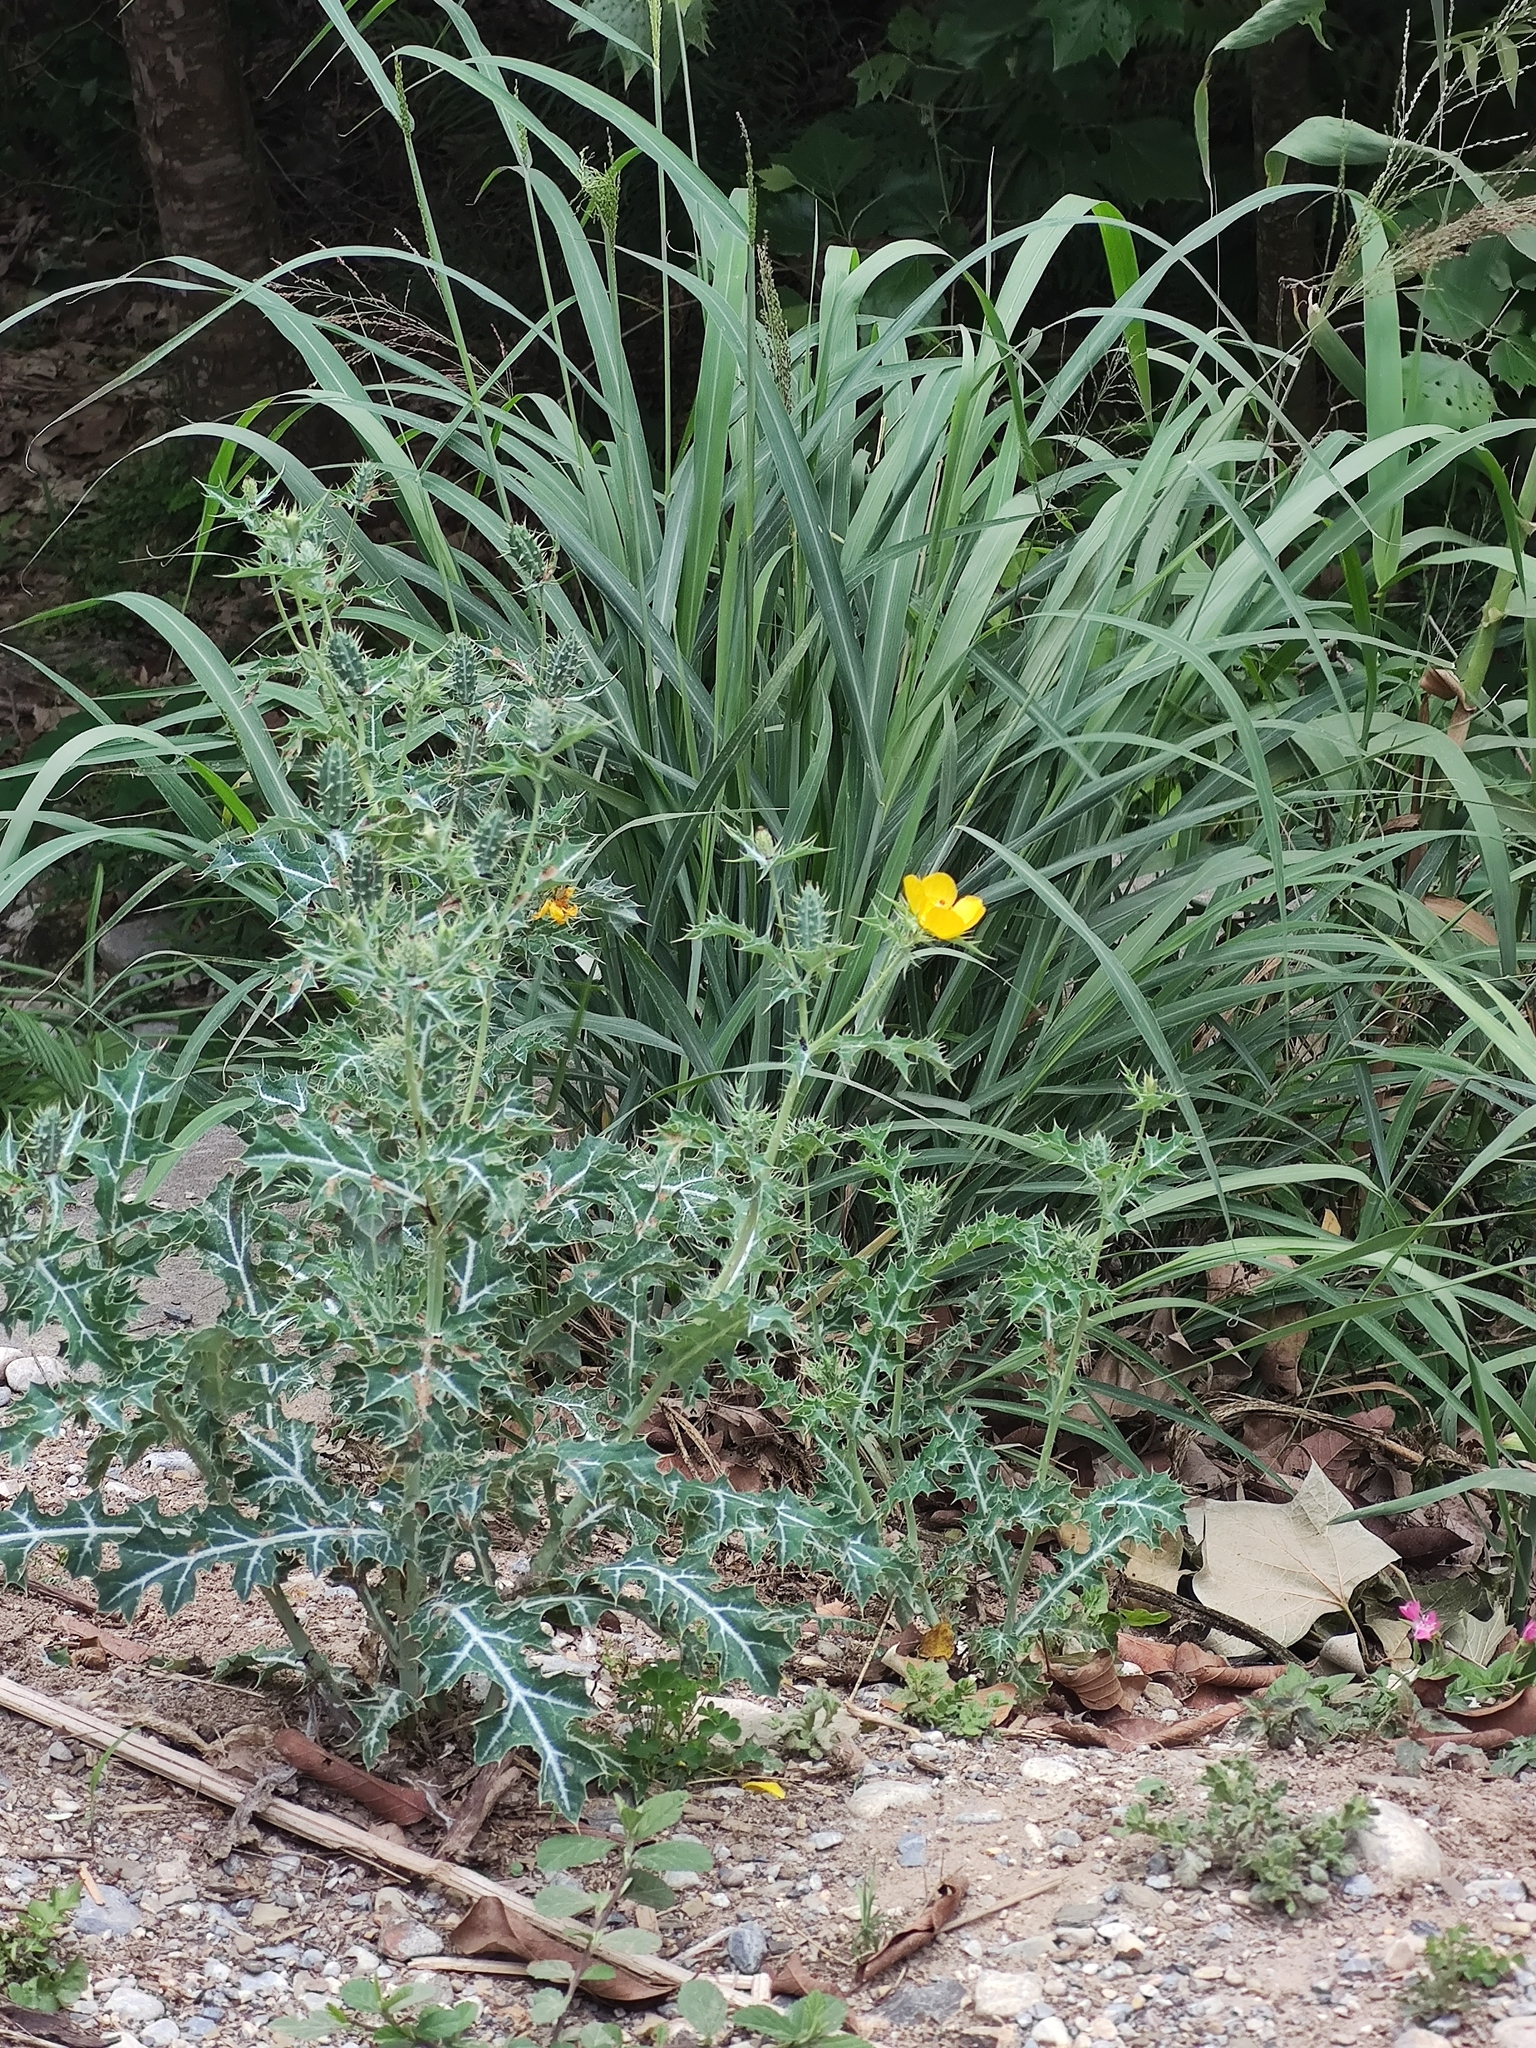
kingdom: Plantae
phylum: Tracheophyta
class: Magnoliopsida
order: Ranunculales
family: Papaveraceae
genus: Argemone
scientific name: Argemone mexicana
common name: Mexican poppy
